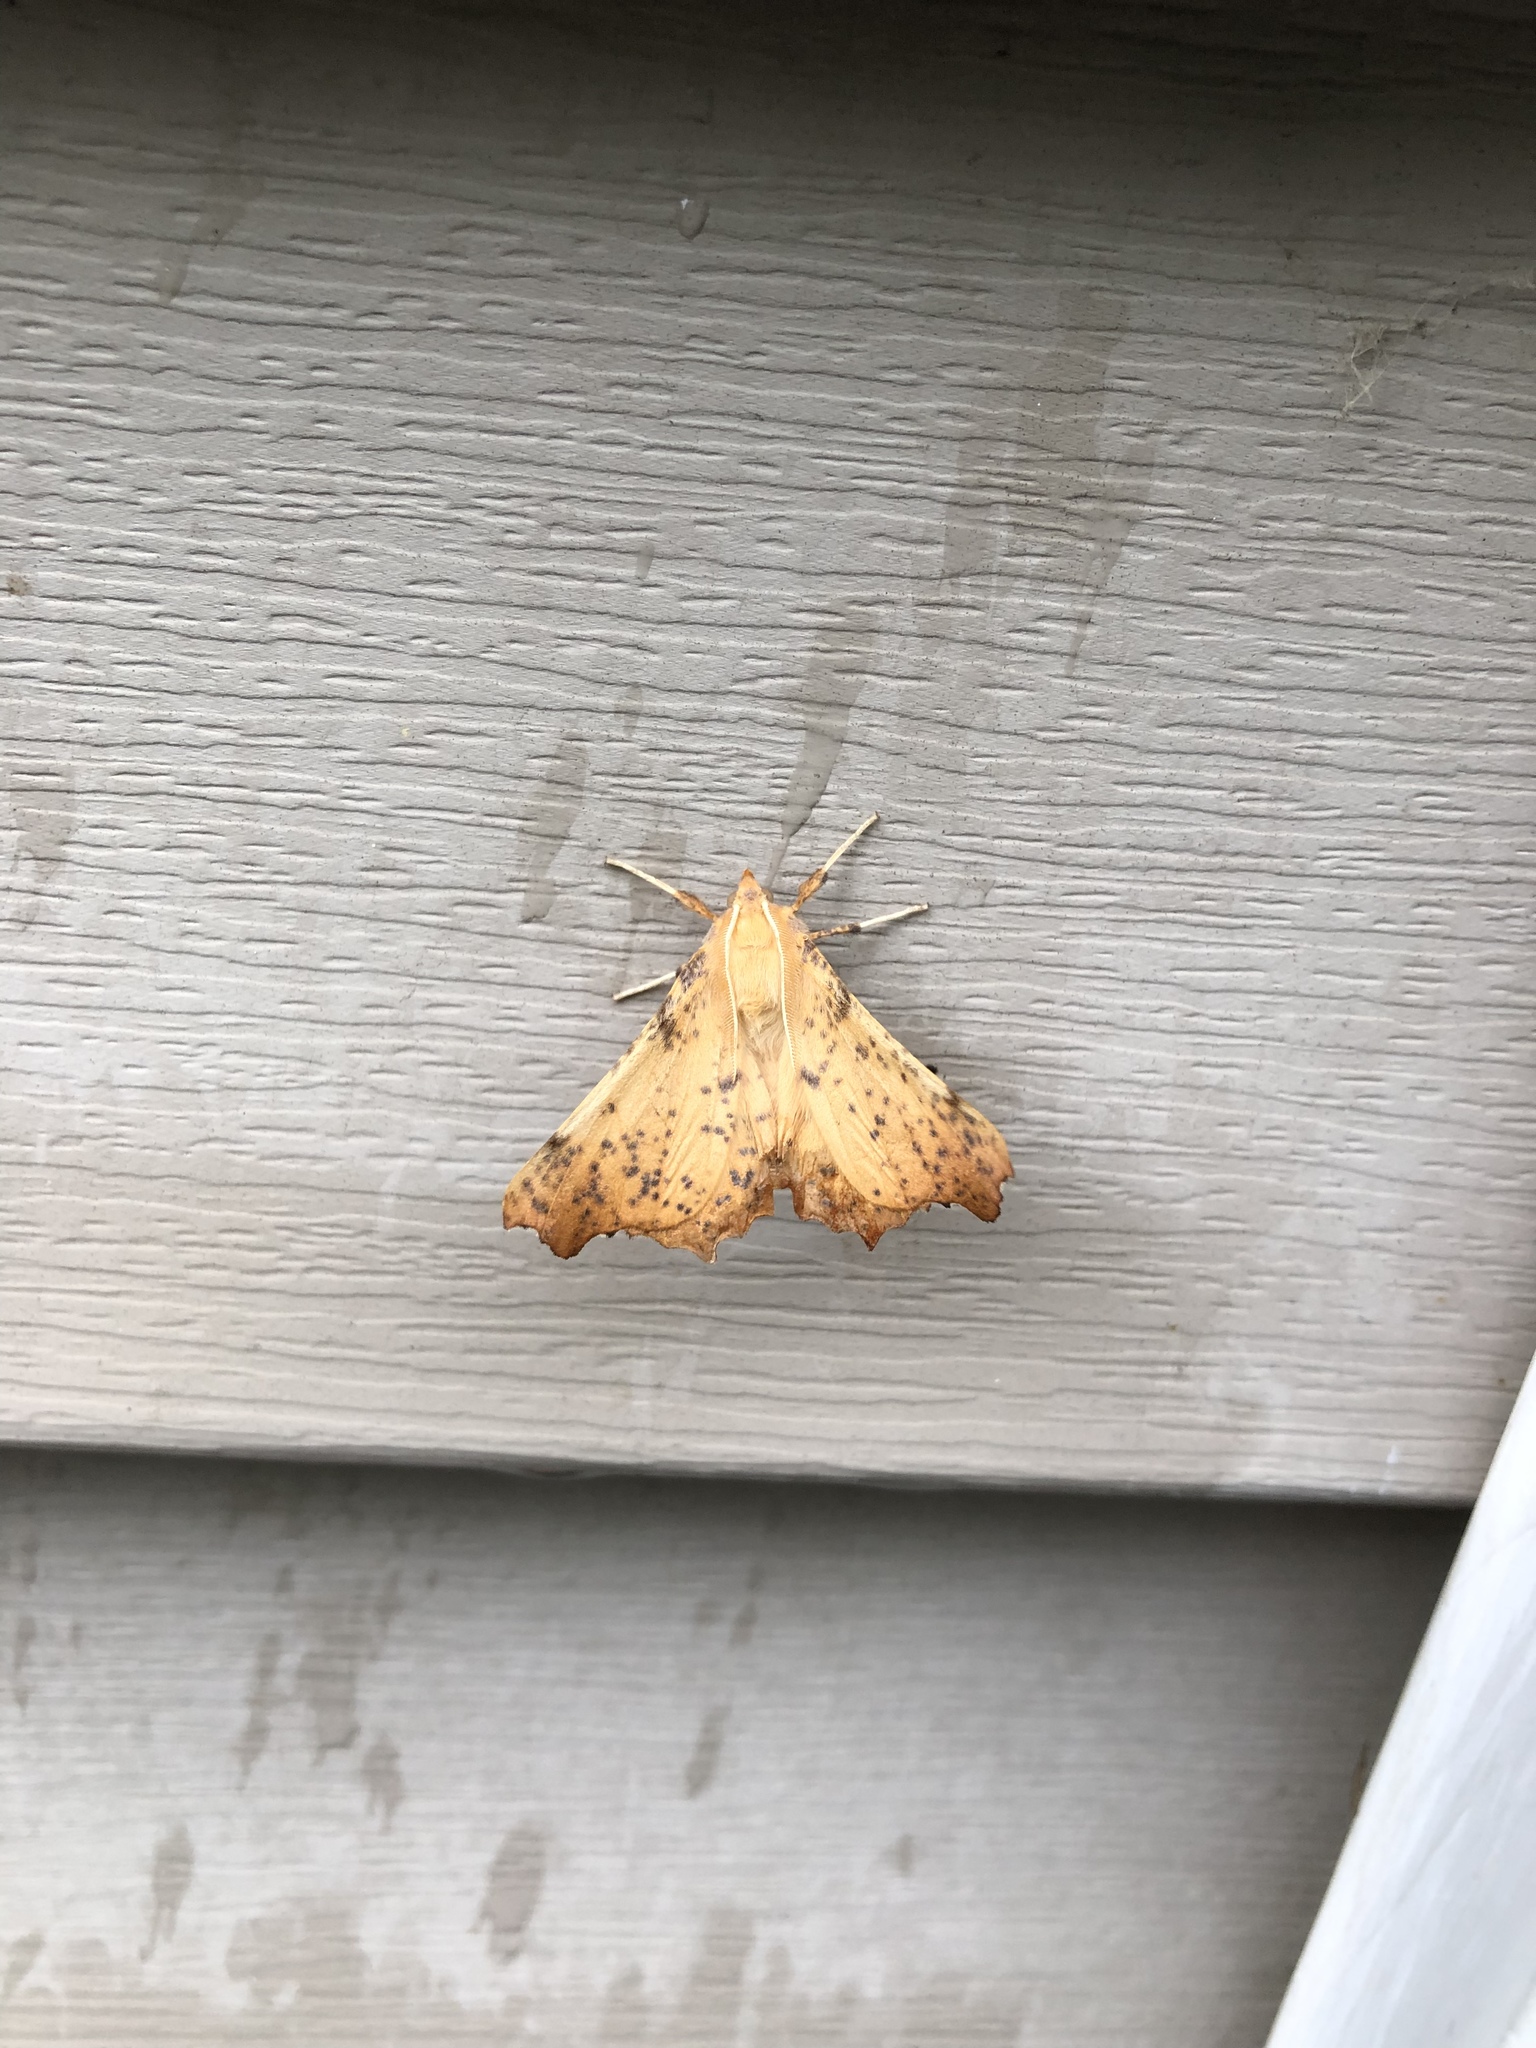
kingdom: Animalia
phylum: Arthropoda
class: Insecta
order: Lepidoptera
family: Geometridae
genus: Ennomos
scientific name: Ennomos magnaria
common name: Maple spanworm
